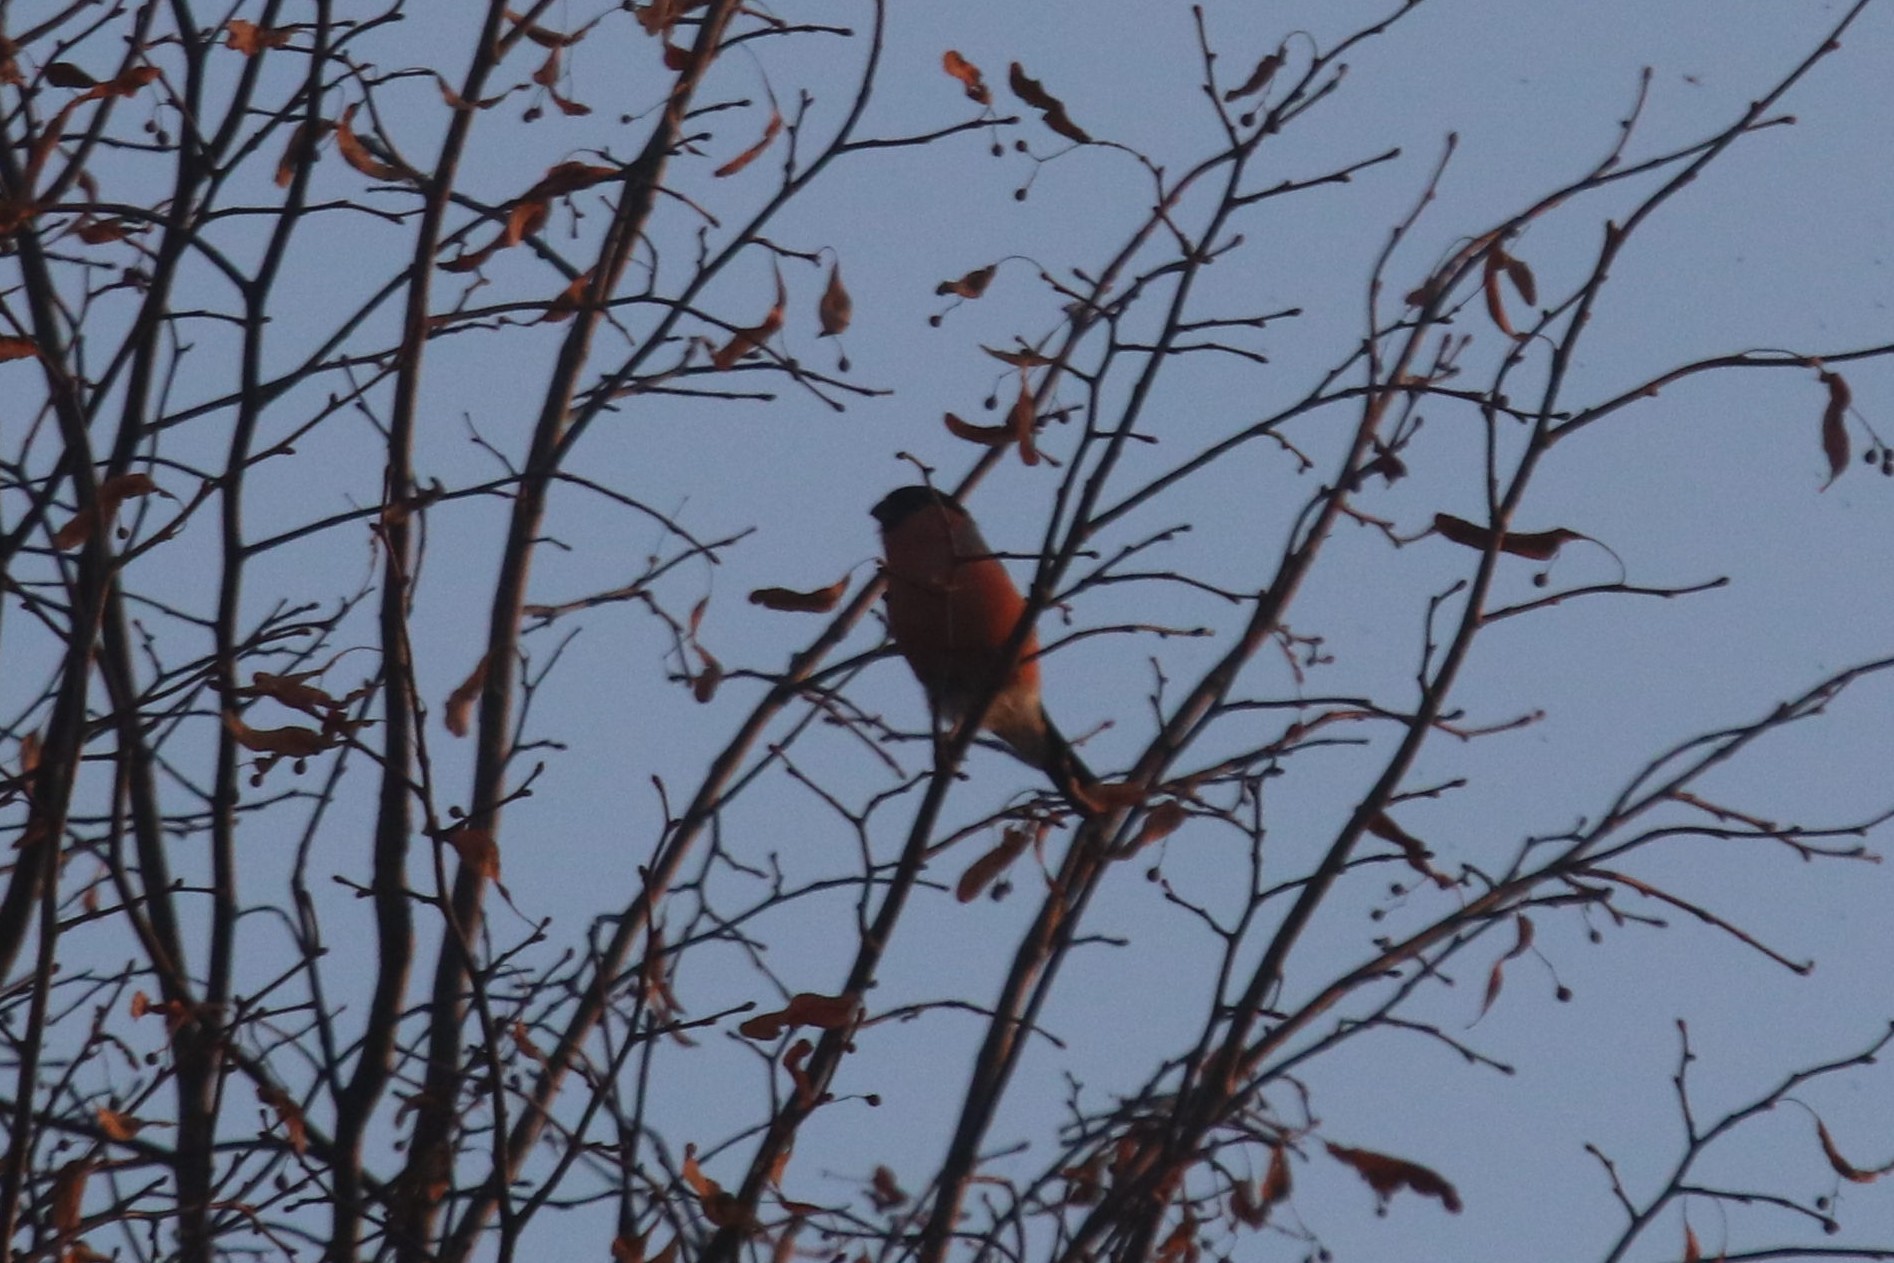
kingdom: Animalia
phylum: Chordata
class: Aves
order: Passeriformes
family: Fringillidae
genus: Pyrrhula
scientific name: Pyrrhula pyrrhula
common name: Eurasian bullfinch
